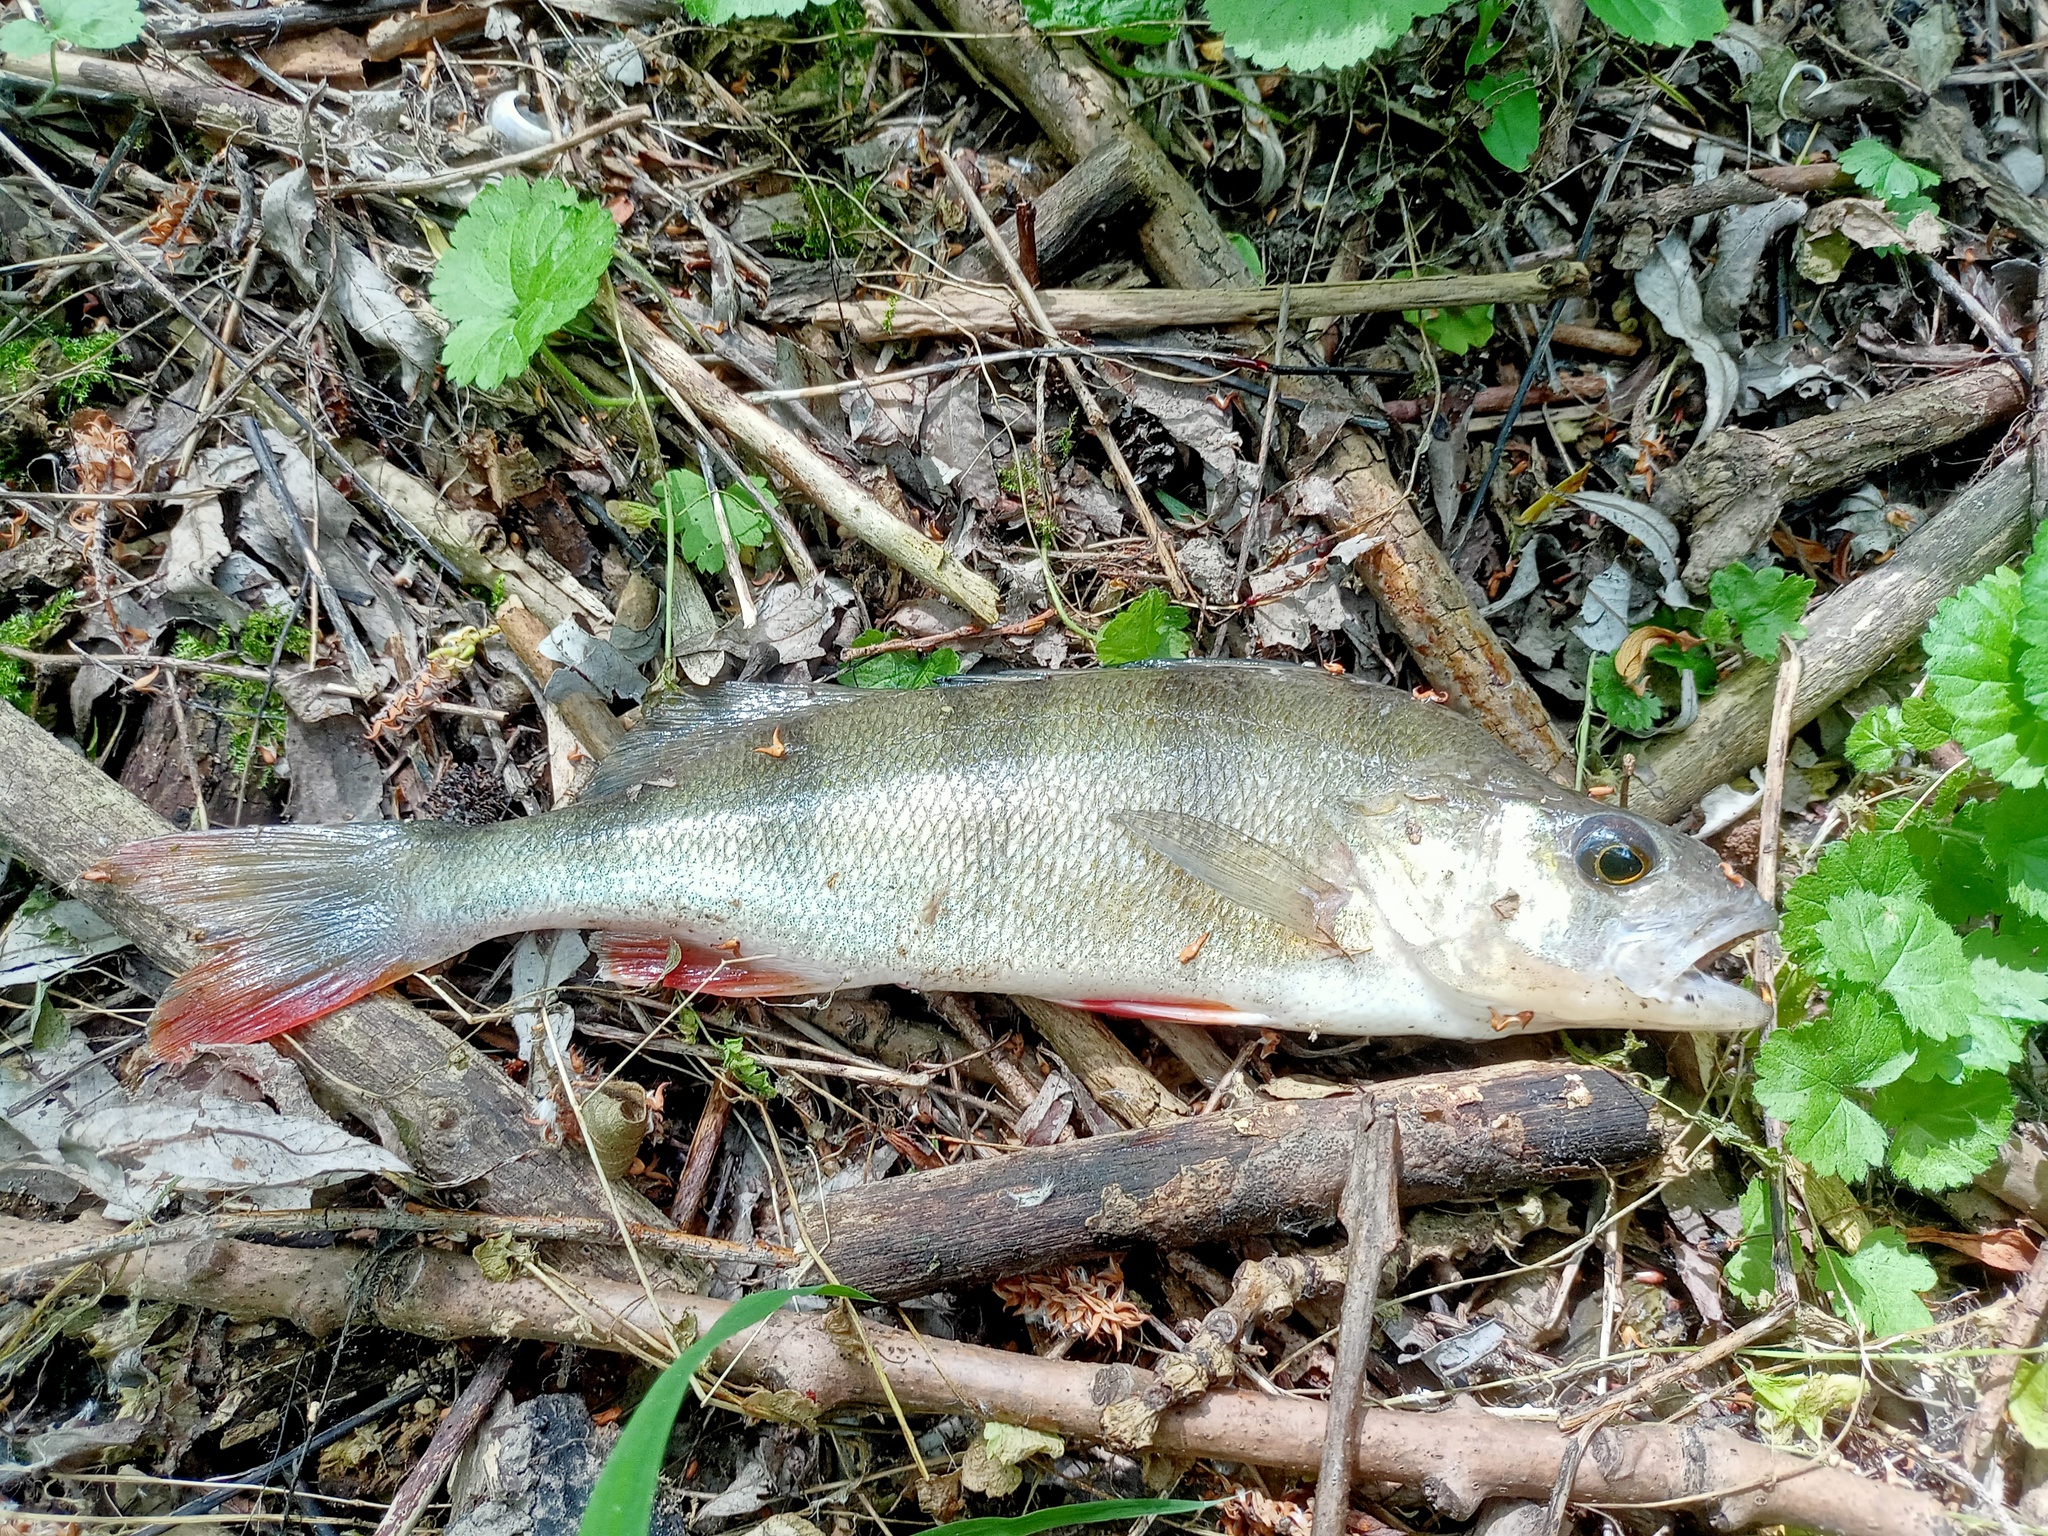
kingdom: Animalia
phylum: Chordata
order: Perciformes
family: Percidae
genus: Perca
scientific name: Perca fluviatilis
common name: Perch
